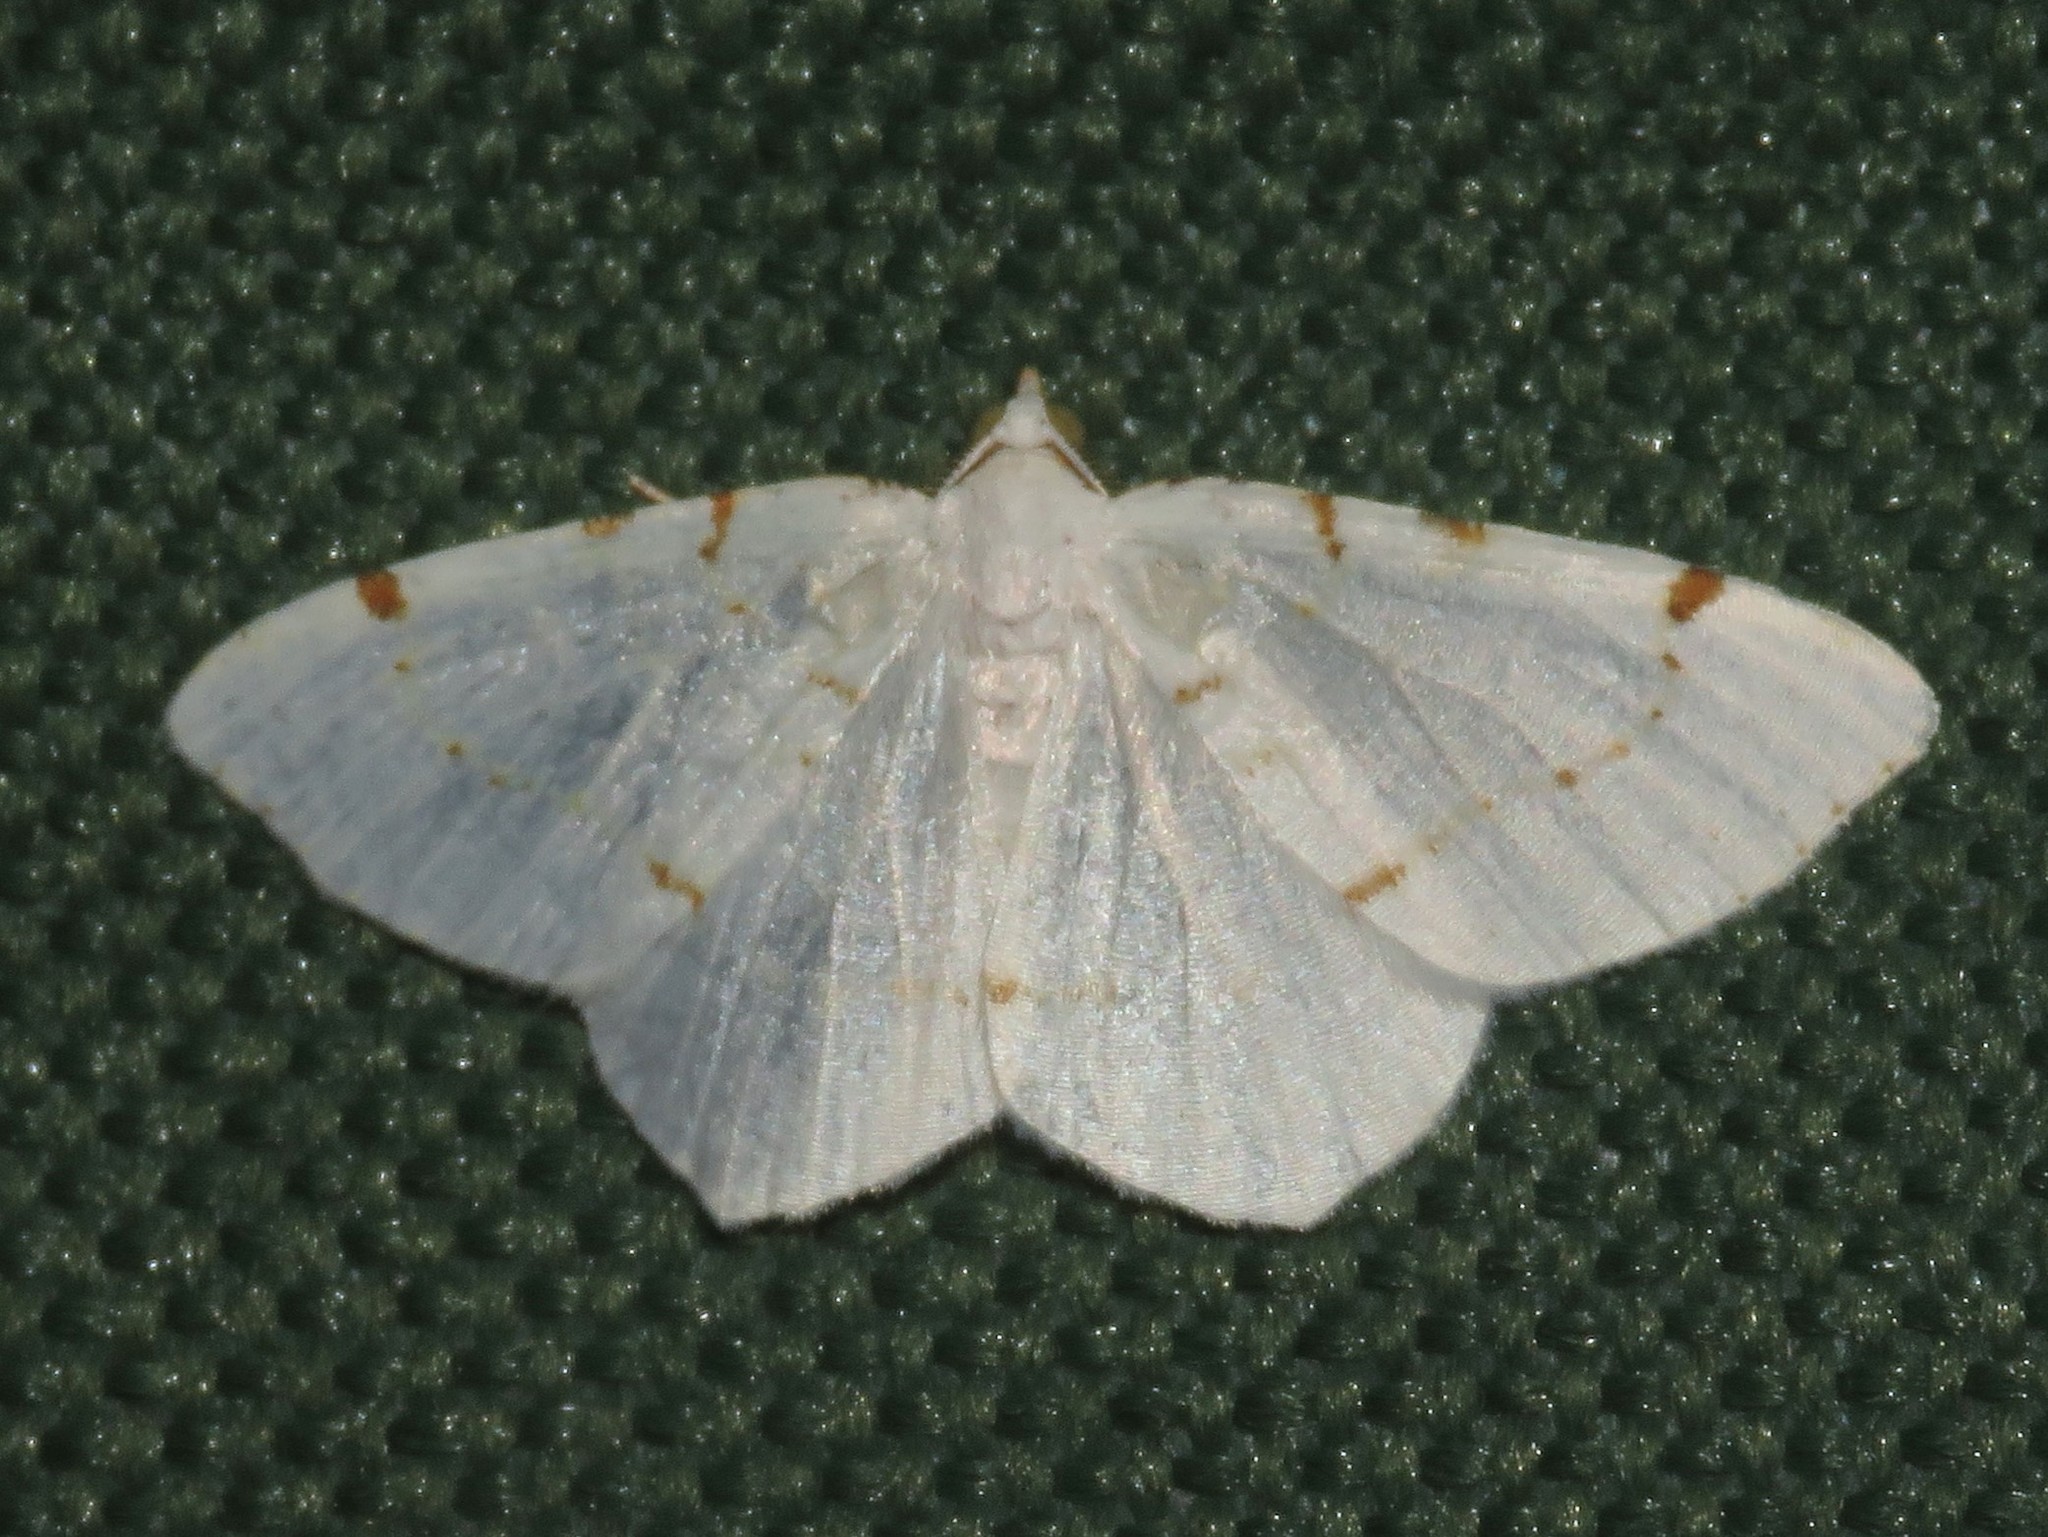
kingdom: Animalia
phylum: Arthropoda
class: Insecta
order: Lepidoptera
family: Geometridae
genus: Macaria
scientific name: Macaria pustularia
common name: Lesser maple spanworm moth
